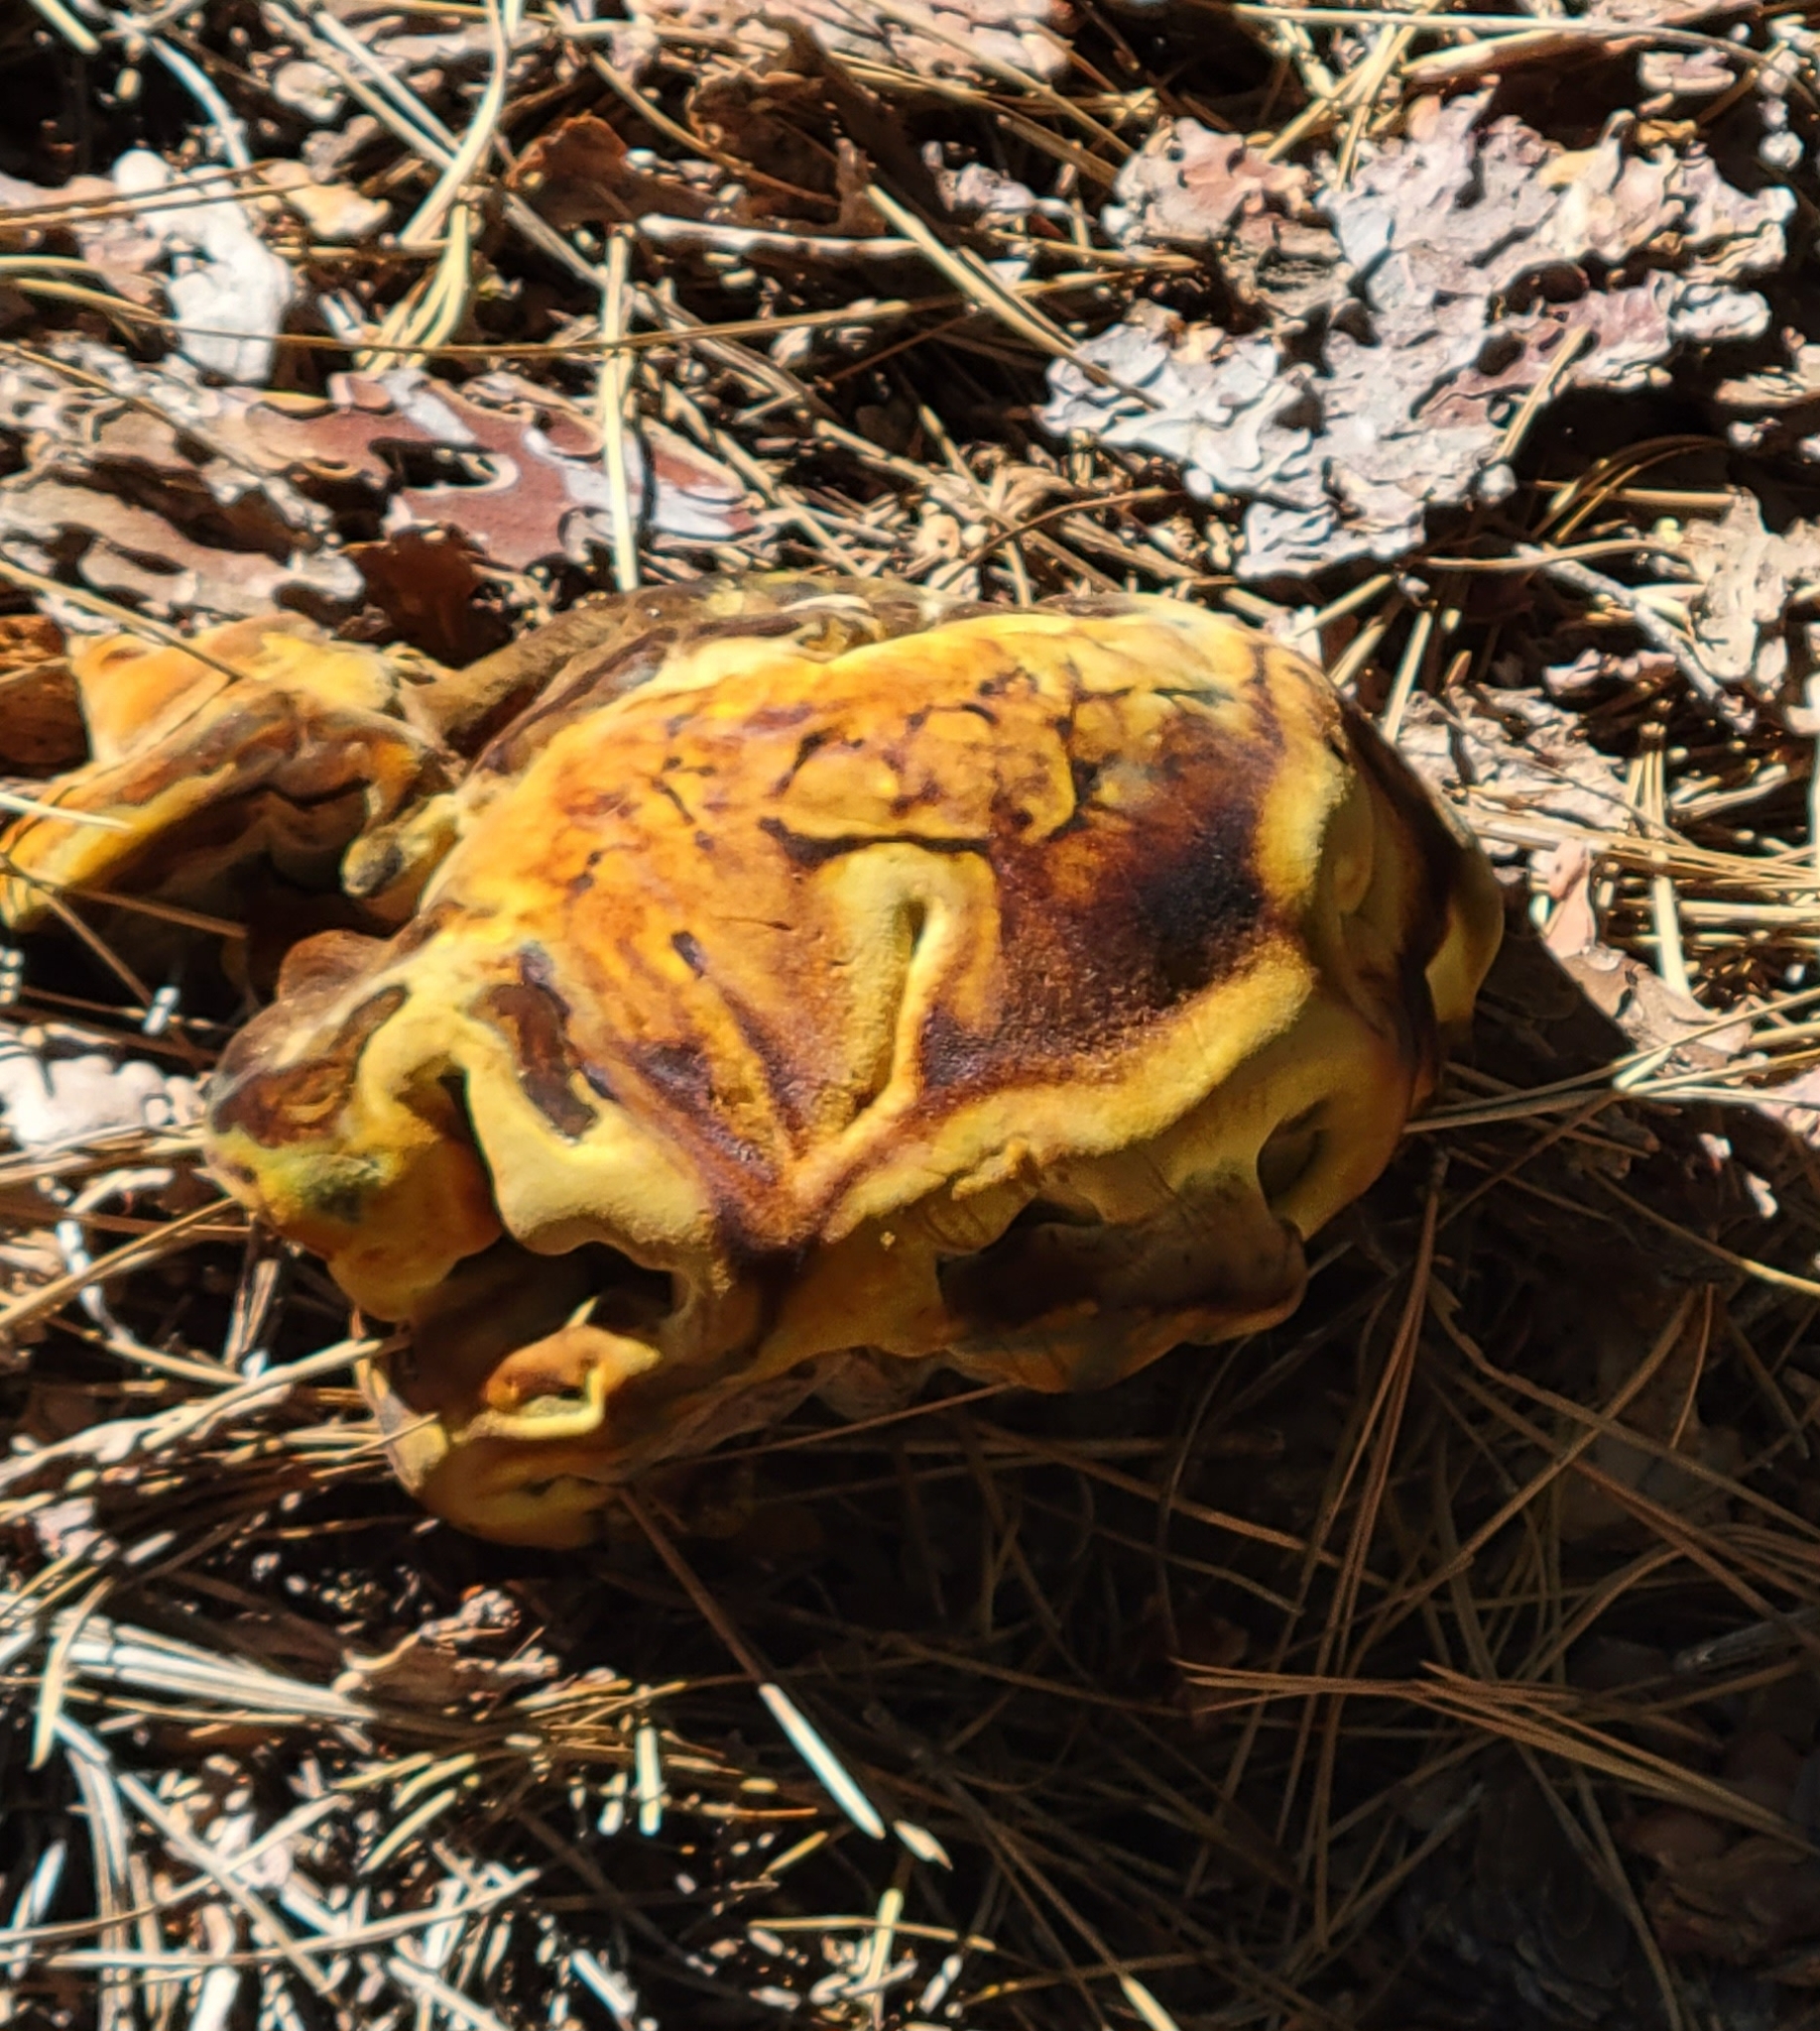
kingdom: Fungi
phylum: Basidiomycota
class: Agaricomycetes
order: Polyporales
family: Laetiporaceae
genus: Phaeolus
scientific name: Phaeolus schweinitzii
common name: Dyer's mazegill
